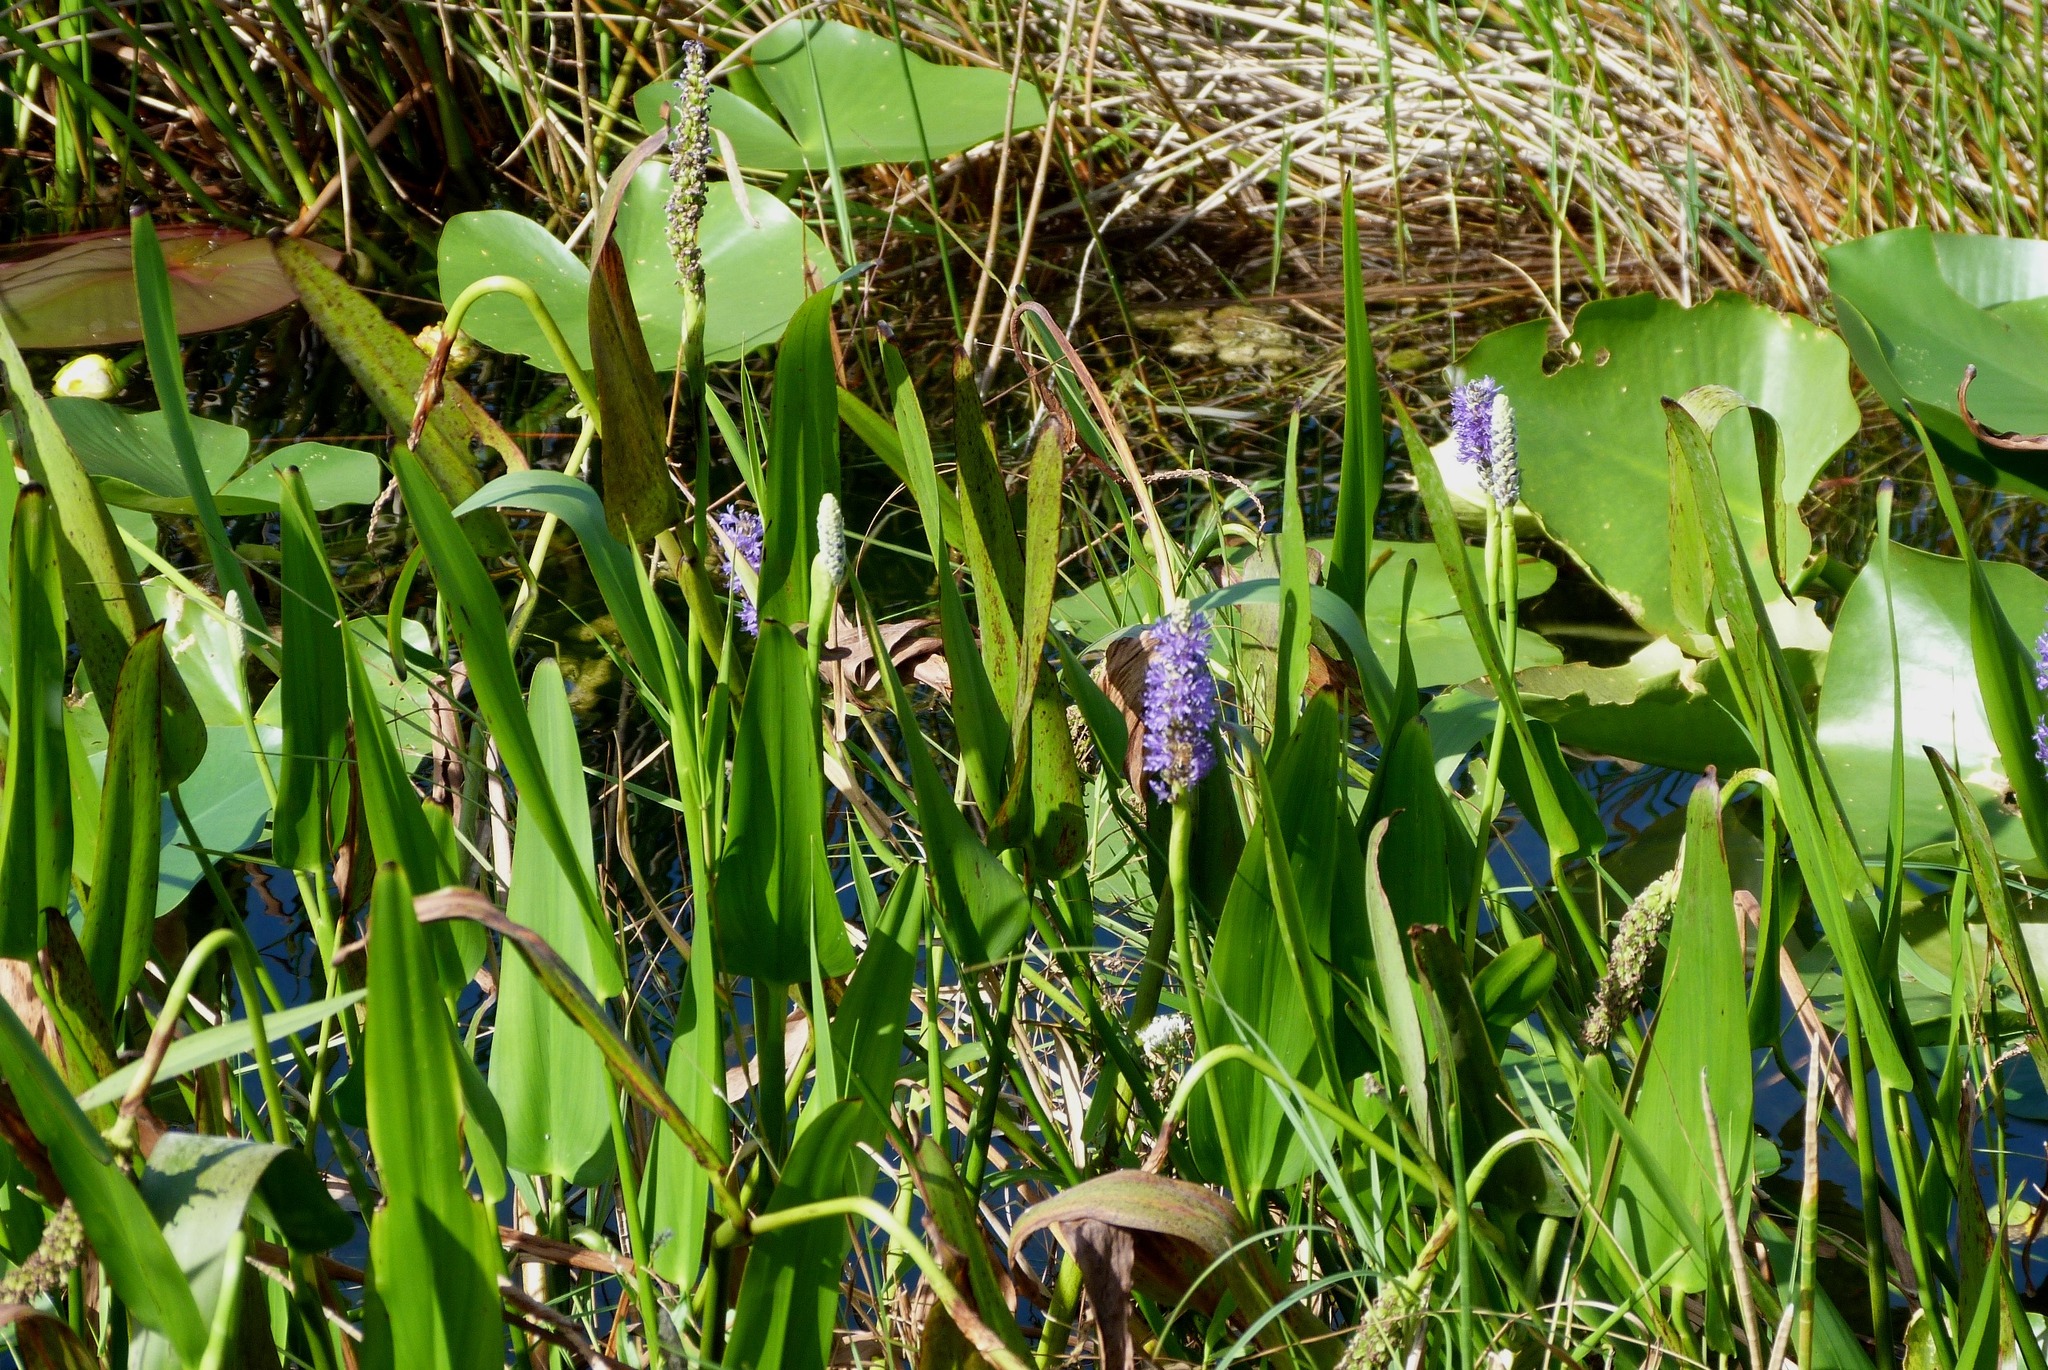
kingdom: Plantae
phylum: Tracheophyta
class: Liliopsida
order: Commelinales
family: Pontederiaceae
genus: Pontederia
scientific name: Pontederia cordata
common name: Pickerelweed
